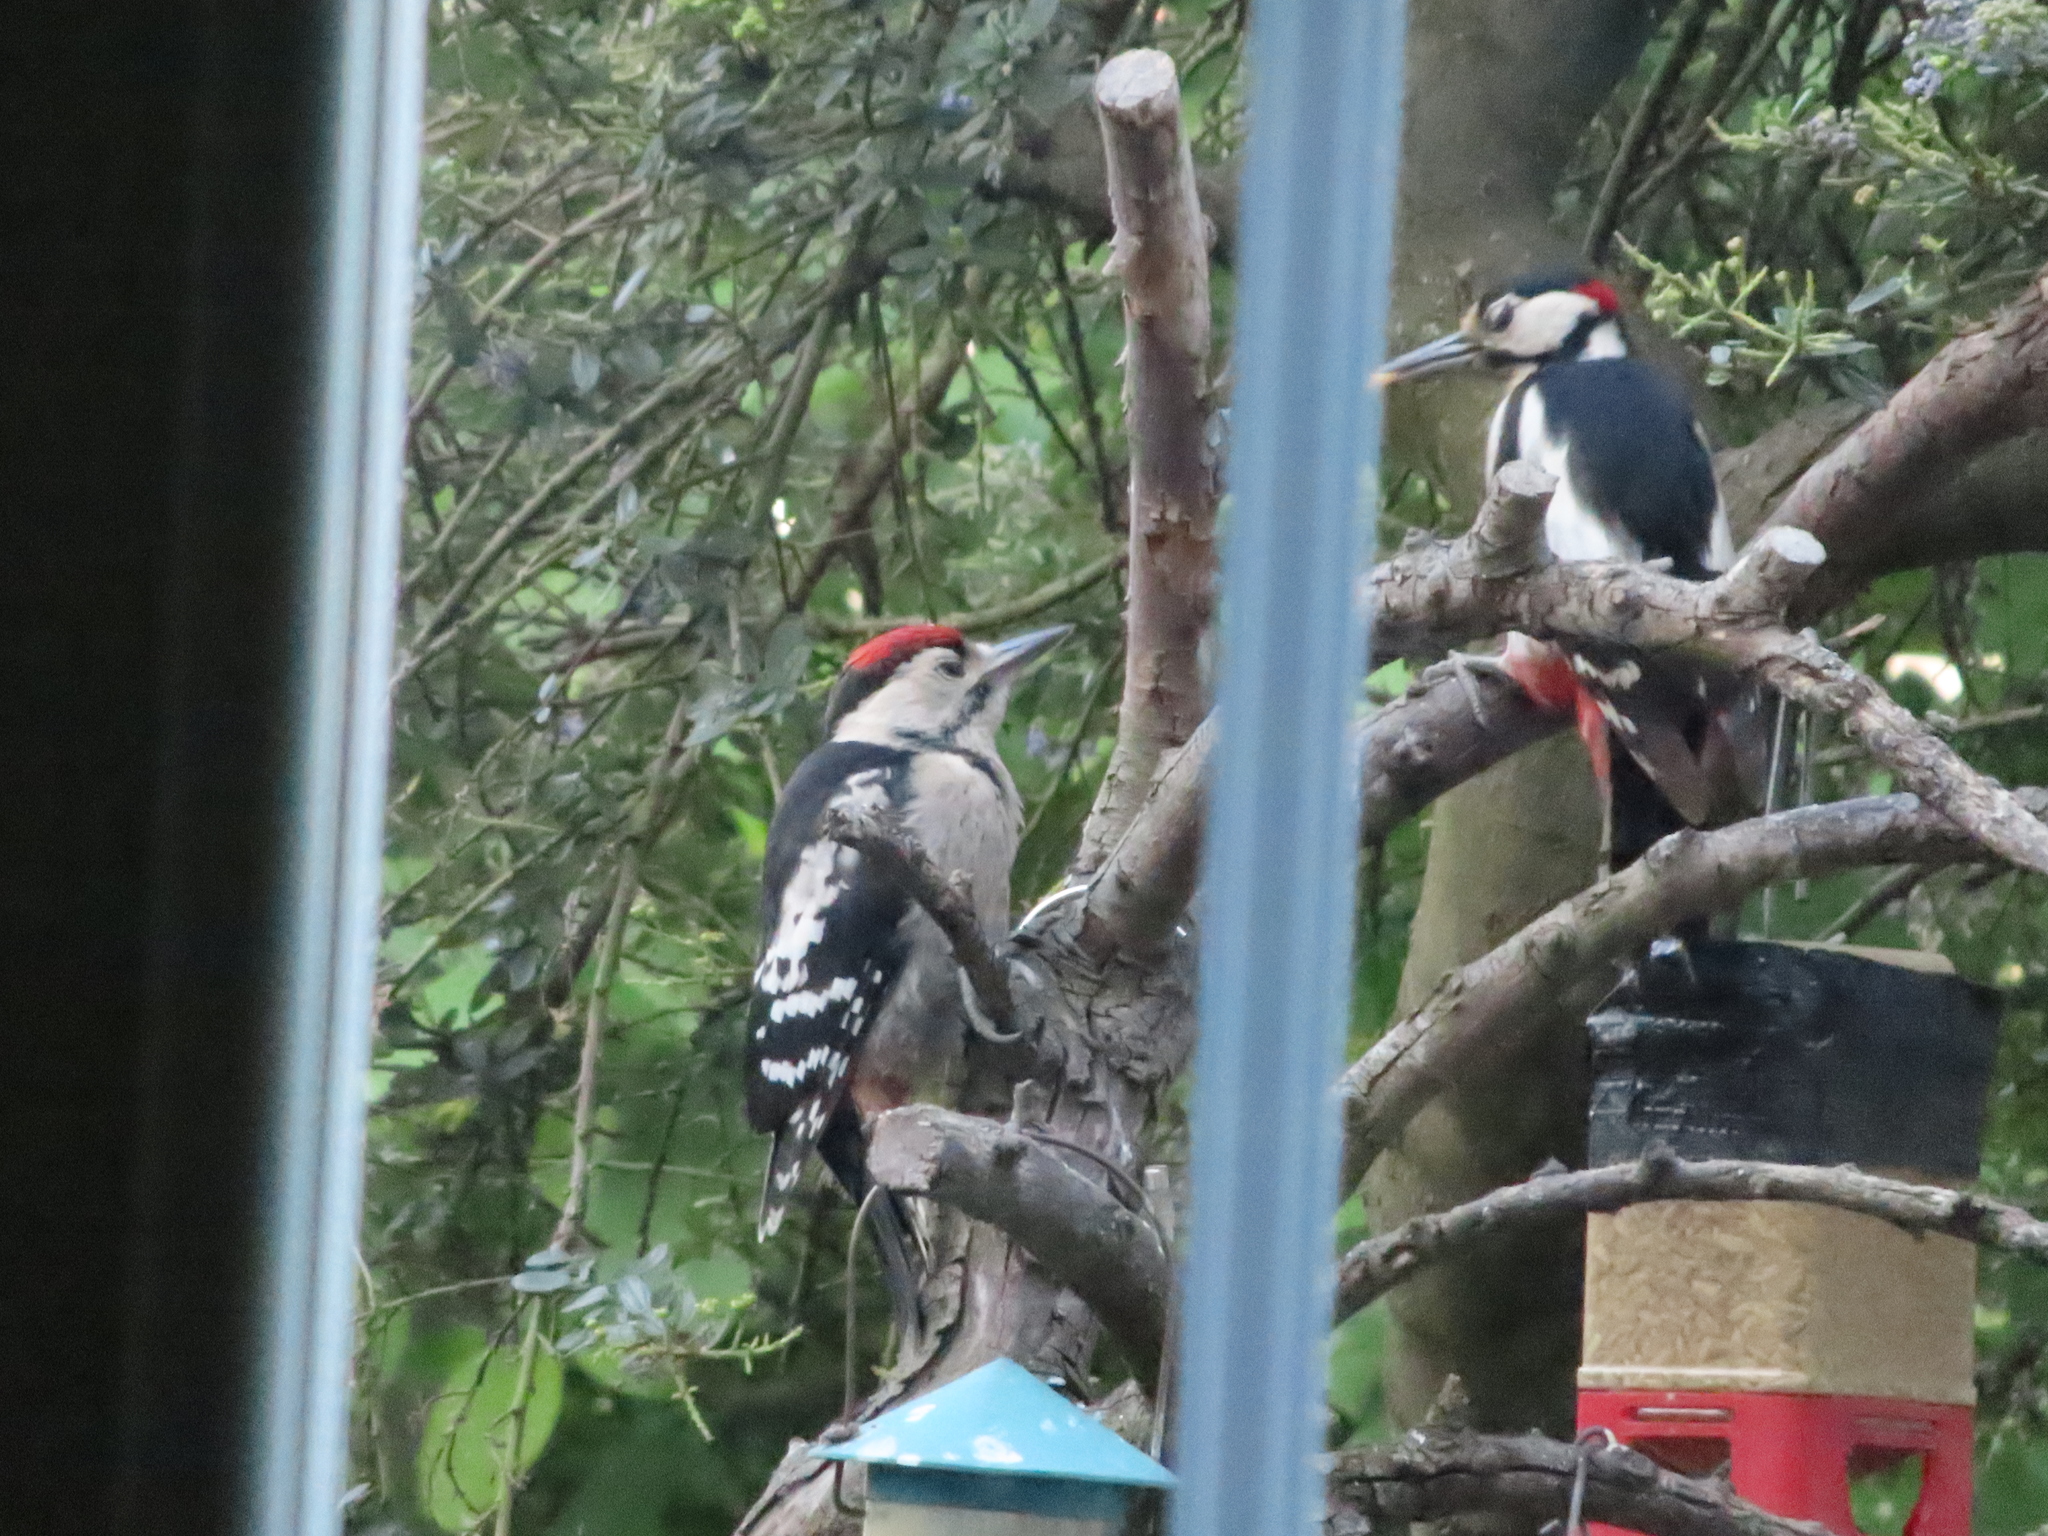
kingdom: Animalia
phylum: Chordata
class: Aves
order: Piciformes
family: Picidae
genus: Dendrocopos
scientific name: Dendrocopos major
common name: Great spotted woodpecker
